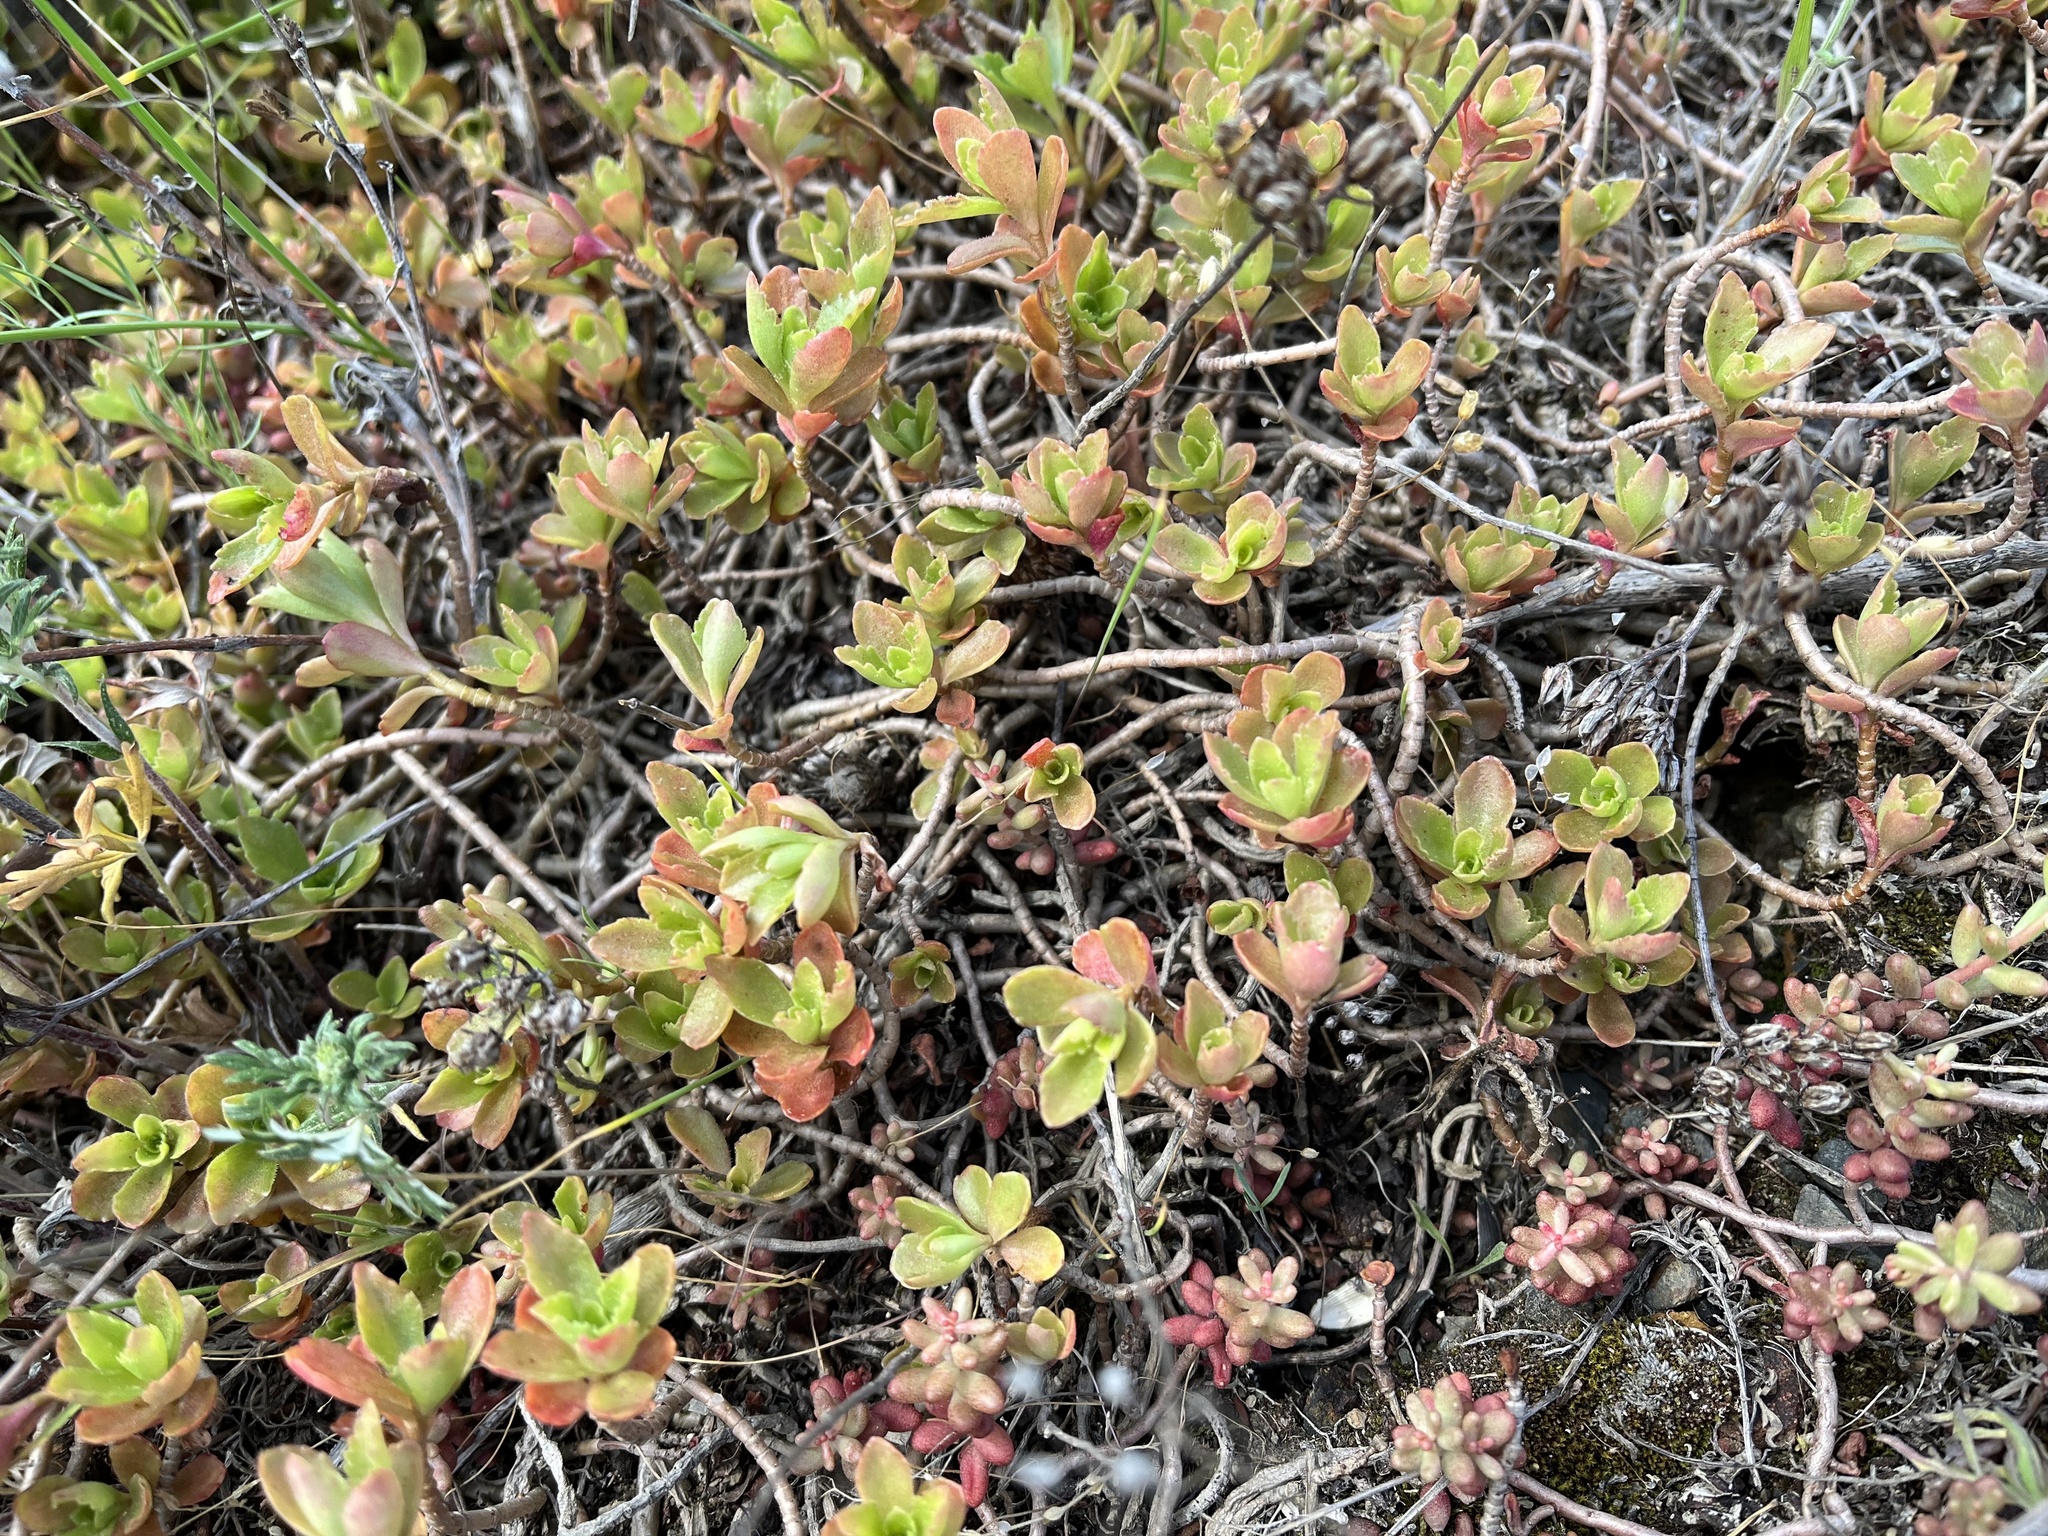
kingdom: Plantae
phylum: Tracheophyta
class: Magnoliopsida
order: Saxifragales
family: Crassulaceae
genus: Phedimus
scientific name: Phedimus spurius
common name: Caucasian stonecrop
